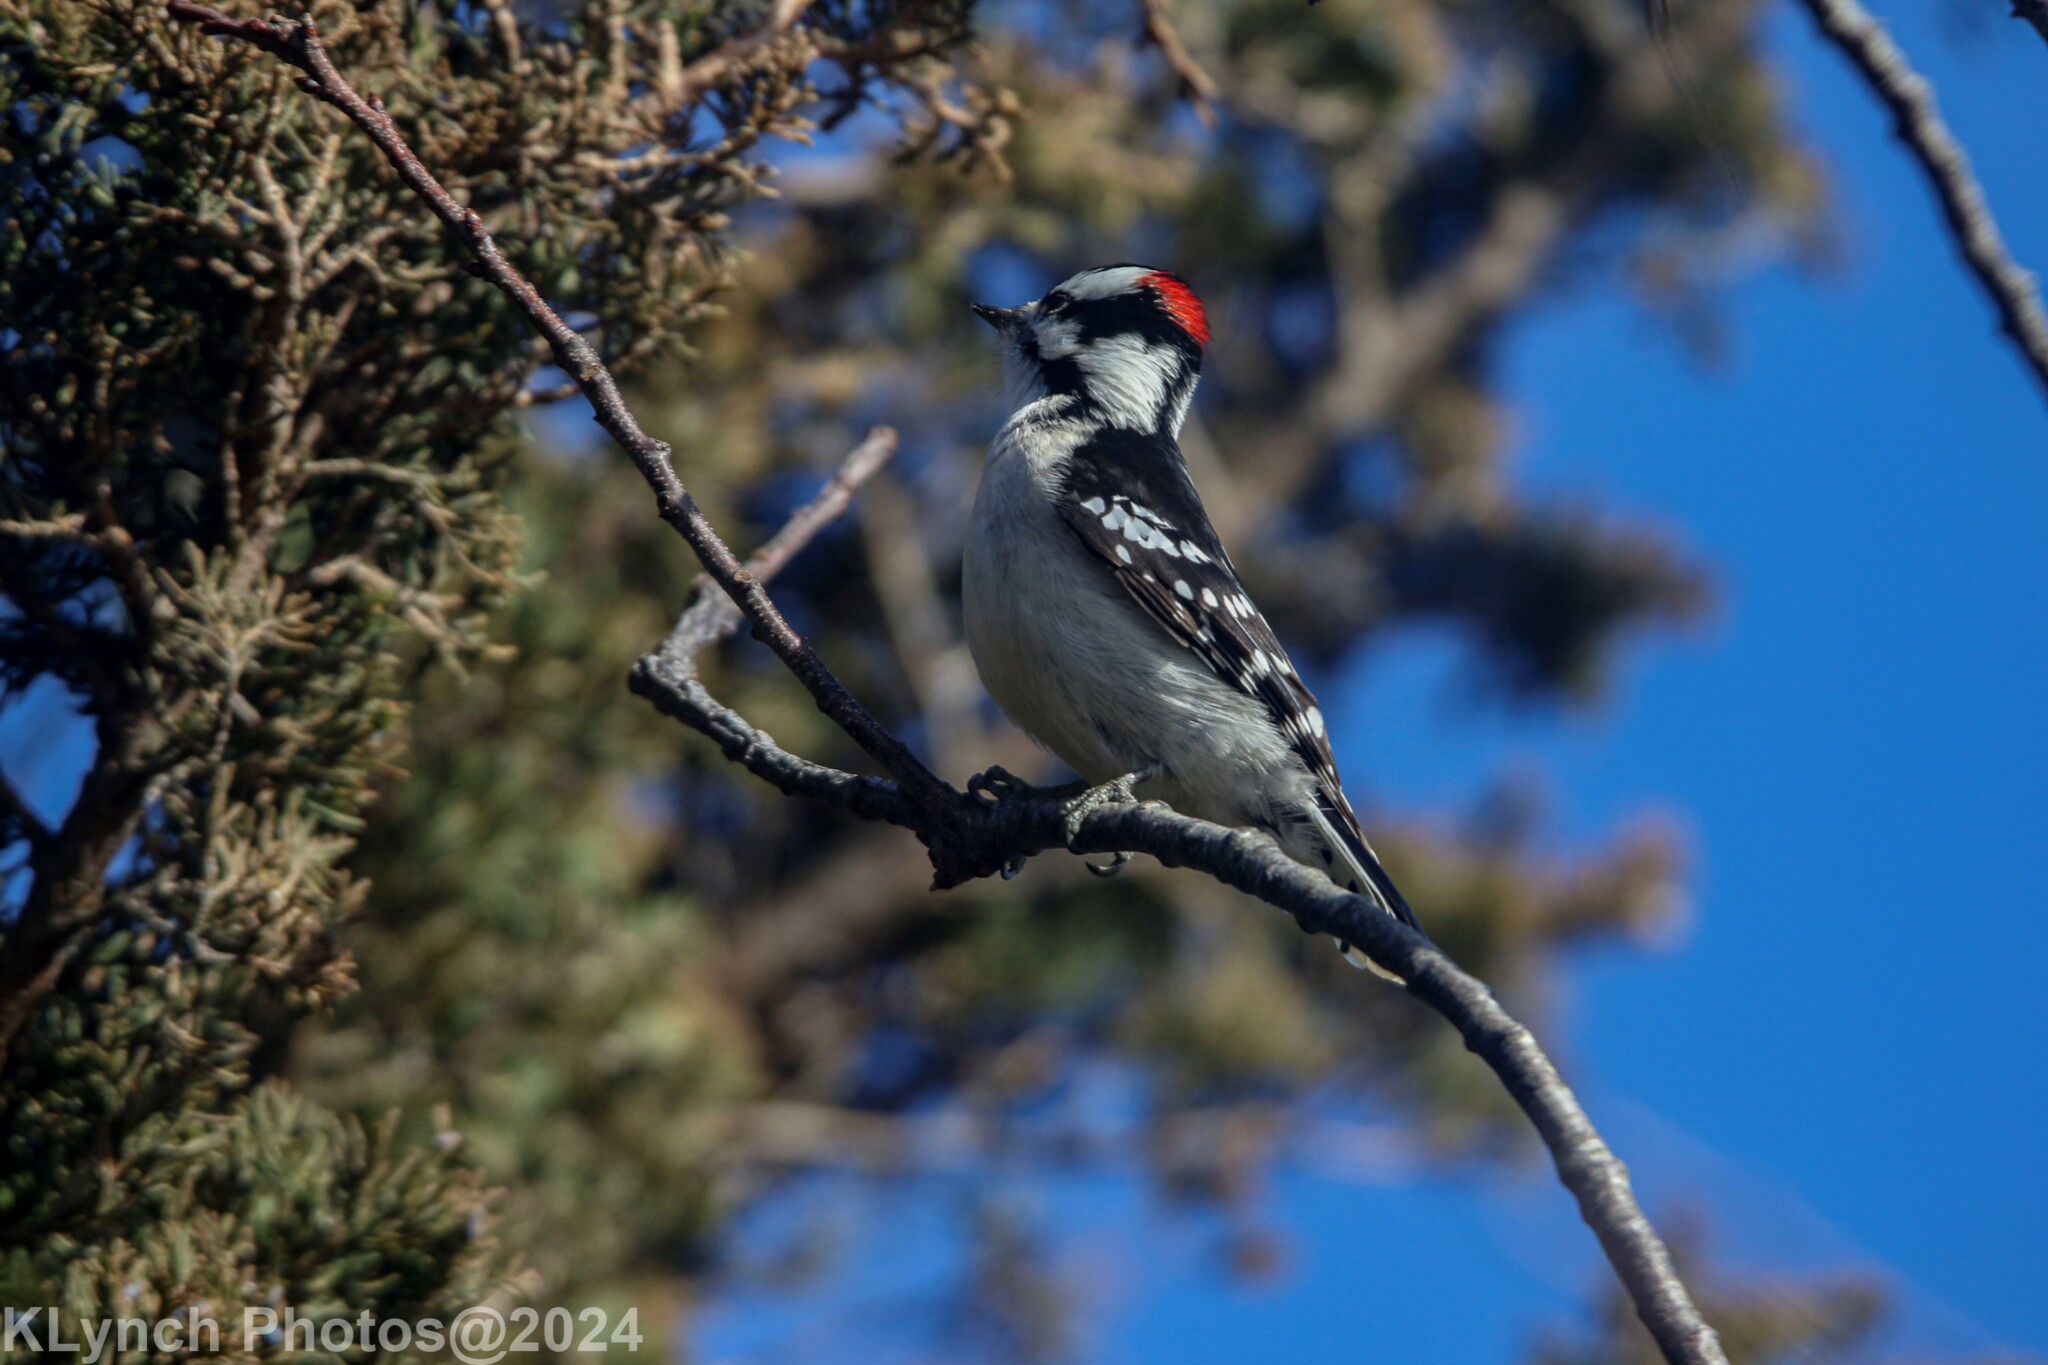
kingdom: Animalia
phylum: Chordata
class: Aves
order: Piciformes
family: Picidae
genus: Dryobates
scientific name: Dryobates pubescens
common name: Downy woodpecker
